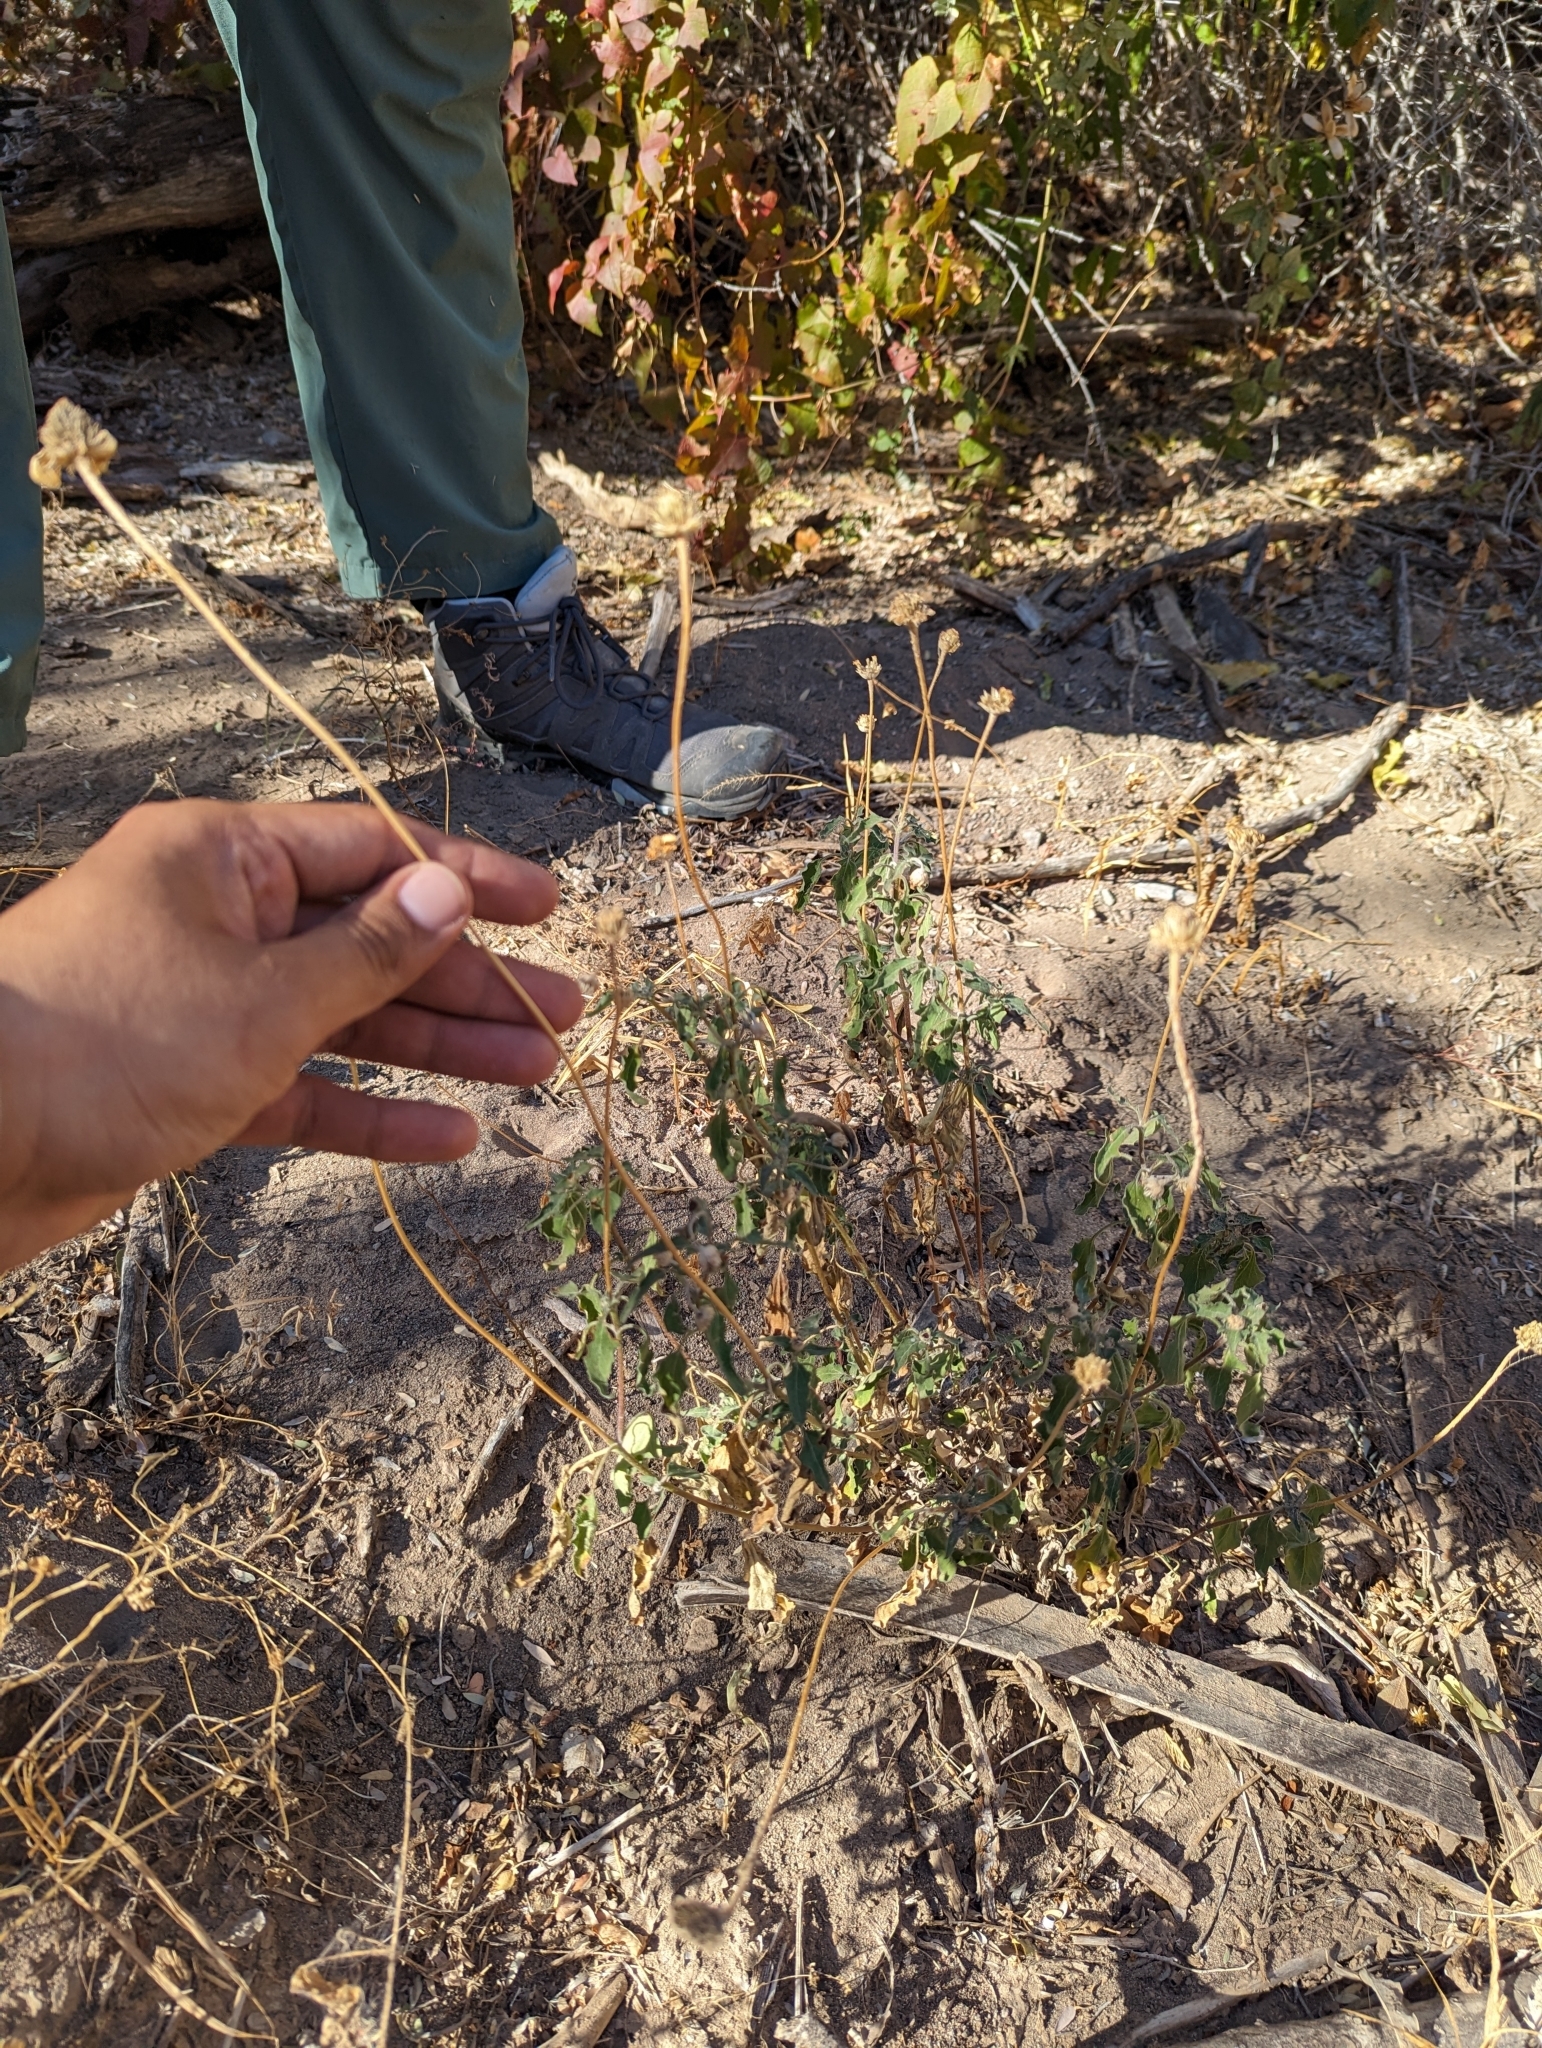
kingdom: Plantae
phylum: Tracheophyta
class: Magnoliopsida
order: Asterales
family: Asteraceae
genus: Heliopsis
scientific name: Heliopsis anomala
